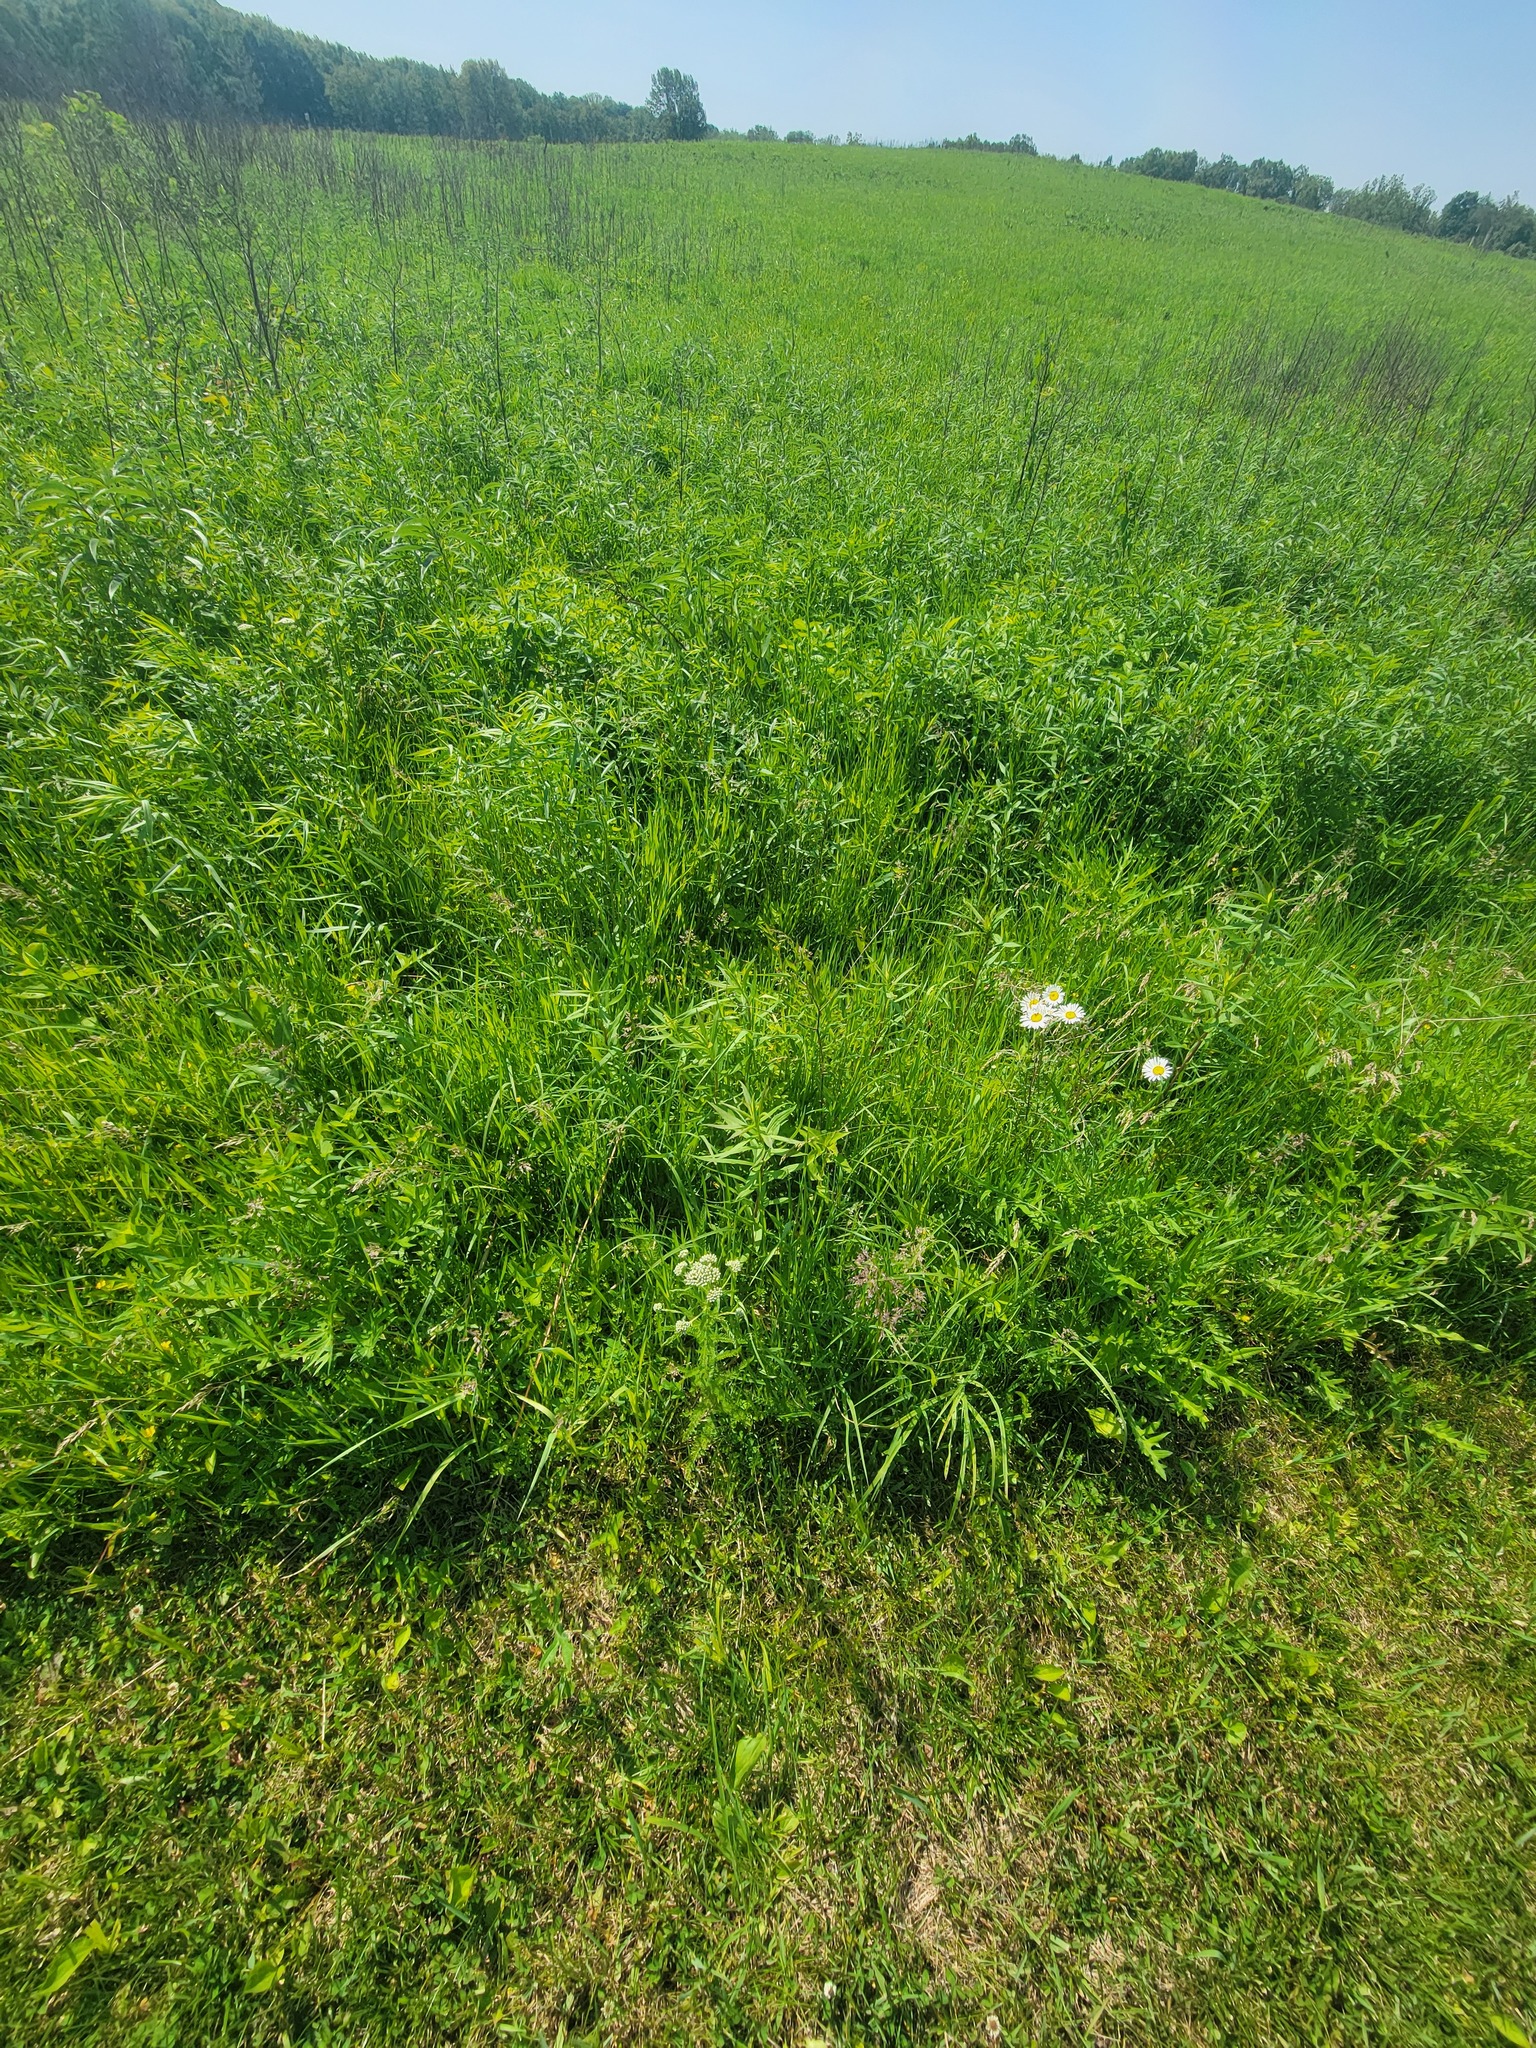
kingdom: Plantae
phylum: Tracheophyta
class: Magnoliopsida
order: Asterales
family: Asteraceae
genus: Achillea
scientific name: Achillea millefolium
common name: Yarrow
